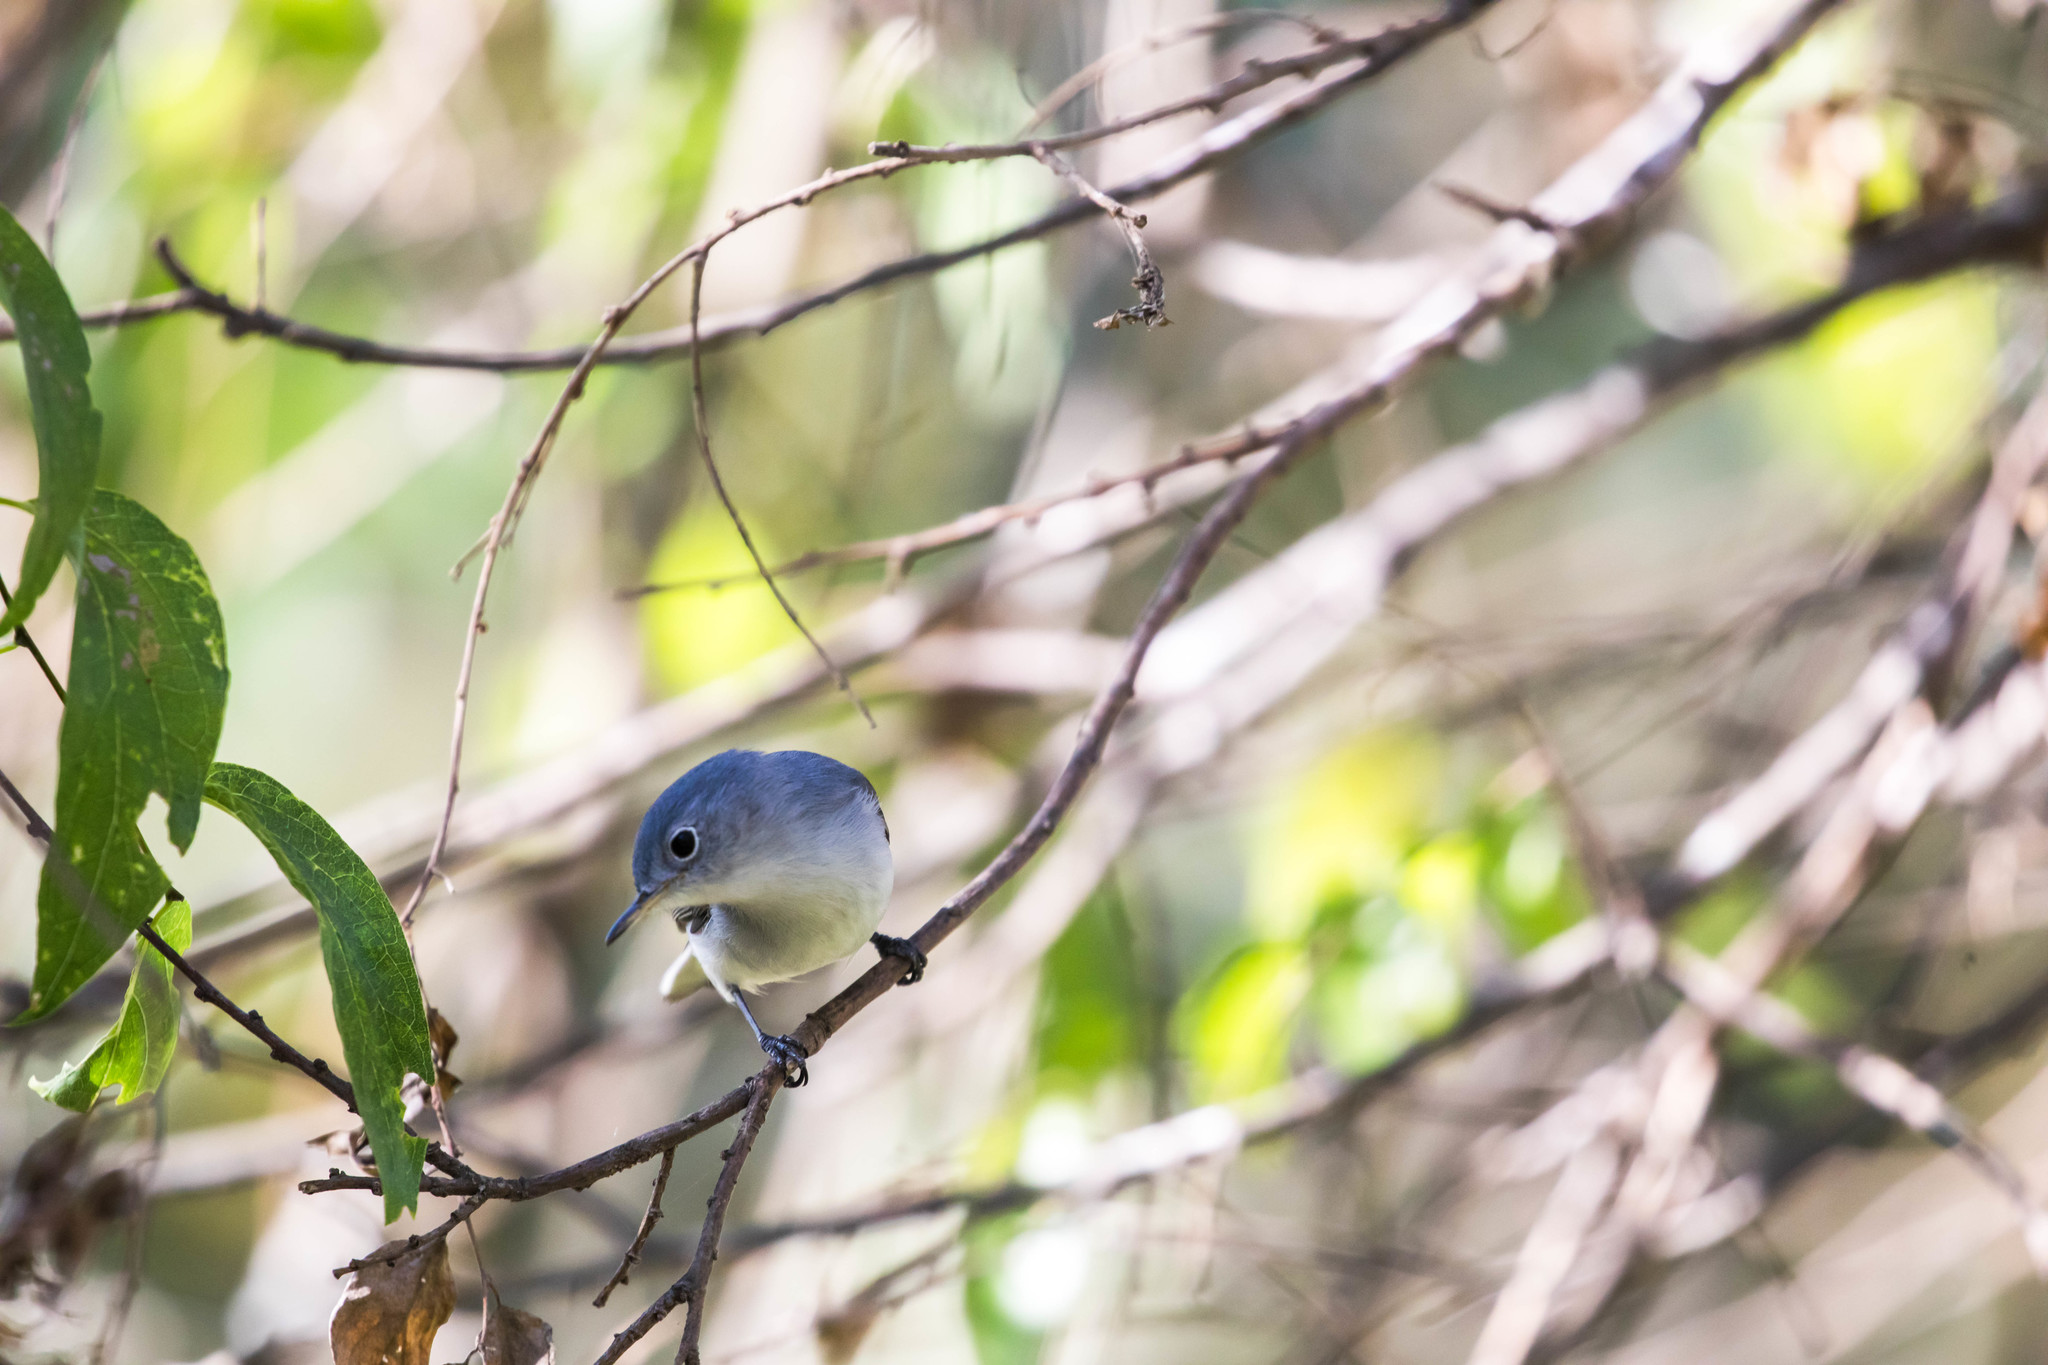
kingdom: Animalia
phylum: Chordata
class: Aves
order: Passeriformes
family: Polioptilidae
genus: Polioptila
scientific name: Polioptila caerulea
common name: Blue-gray gnatcatcher
